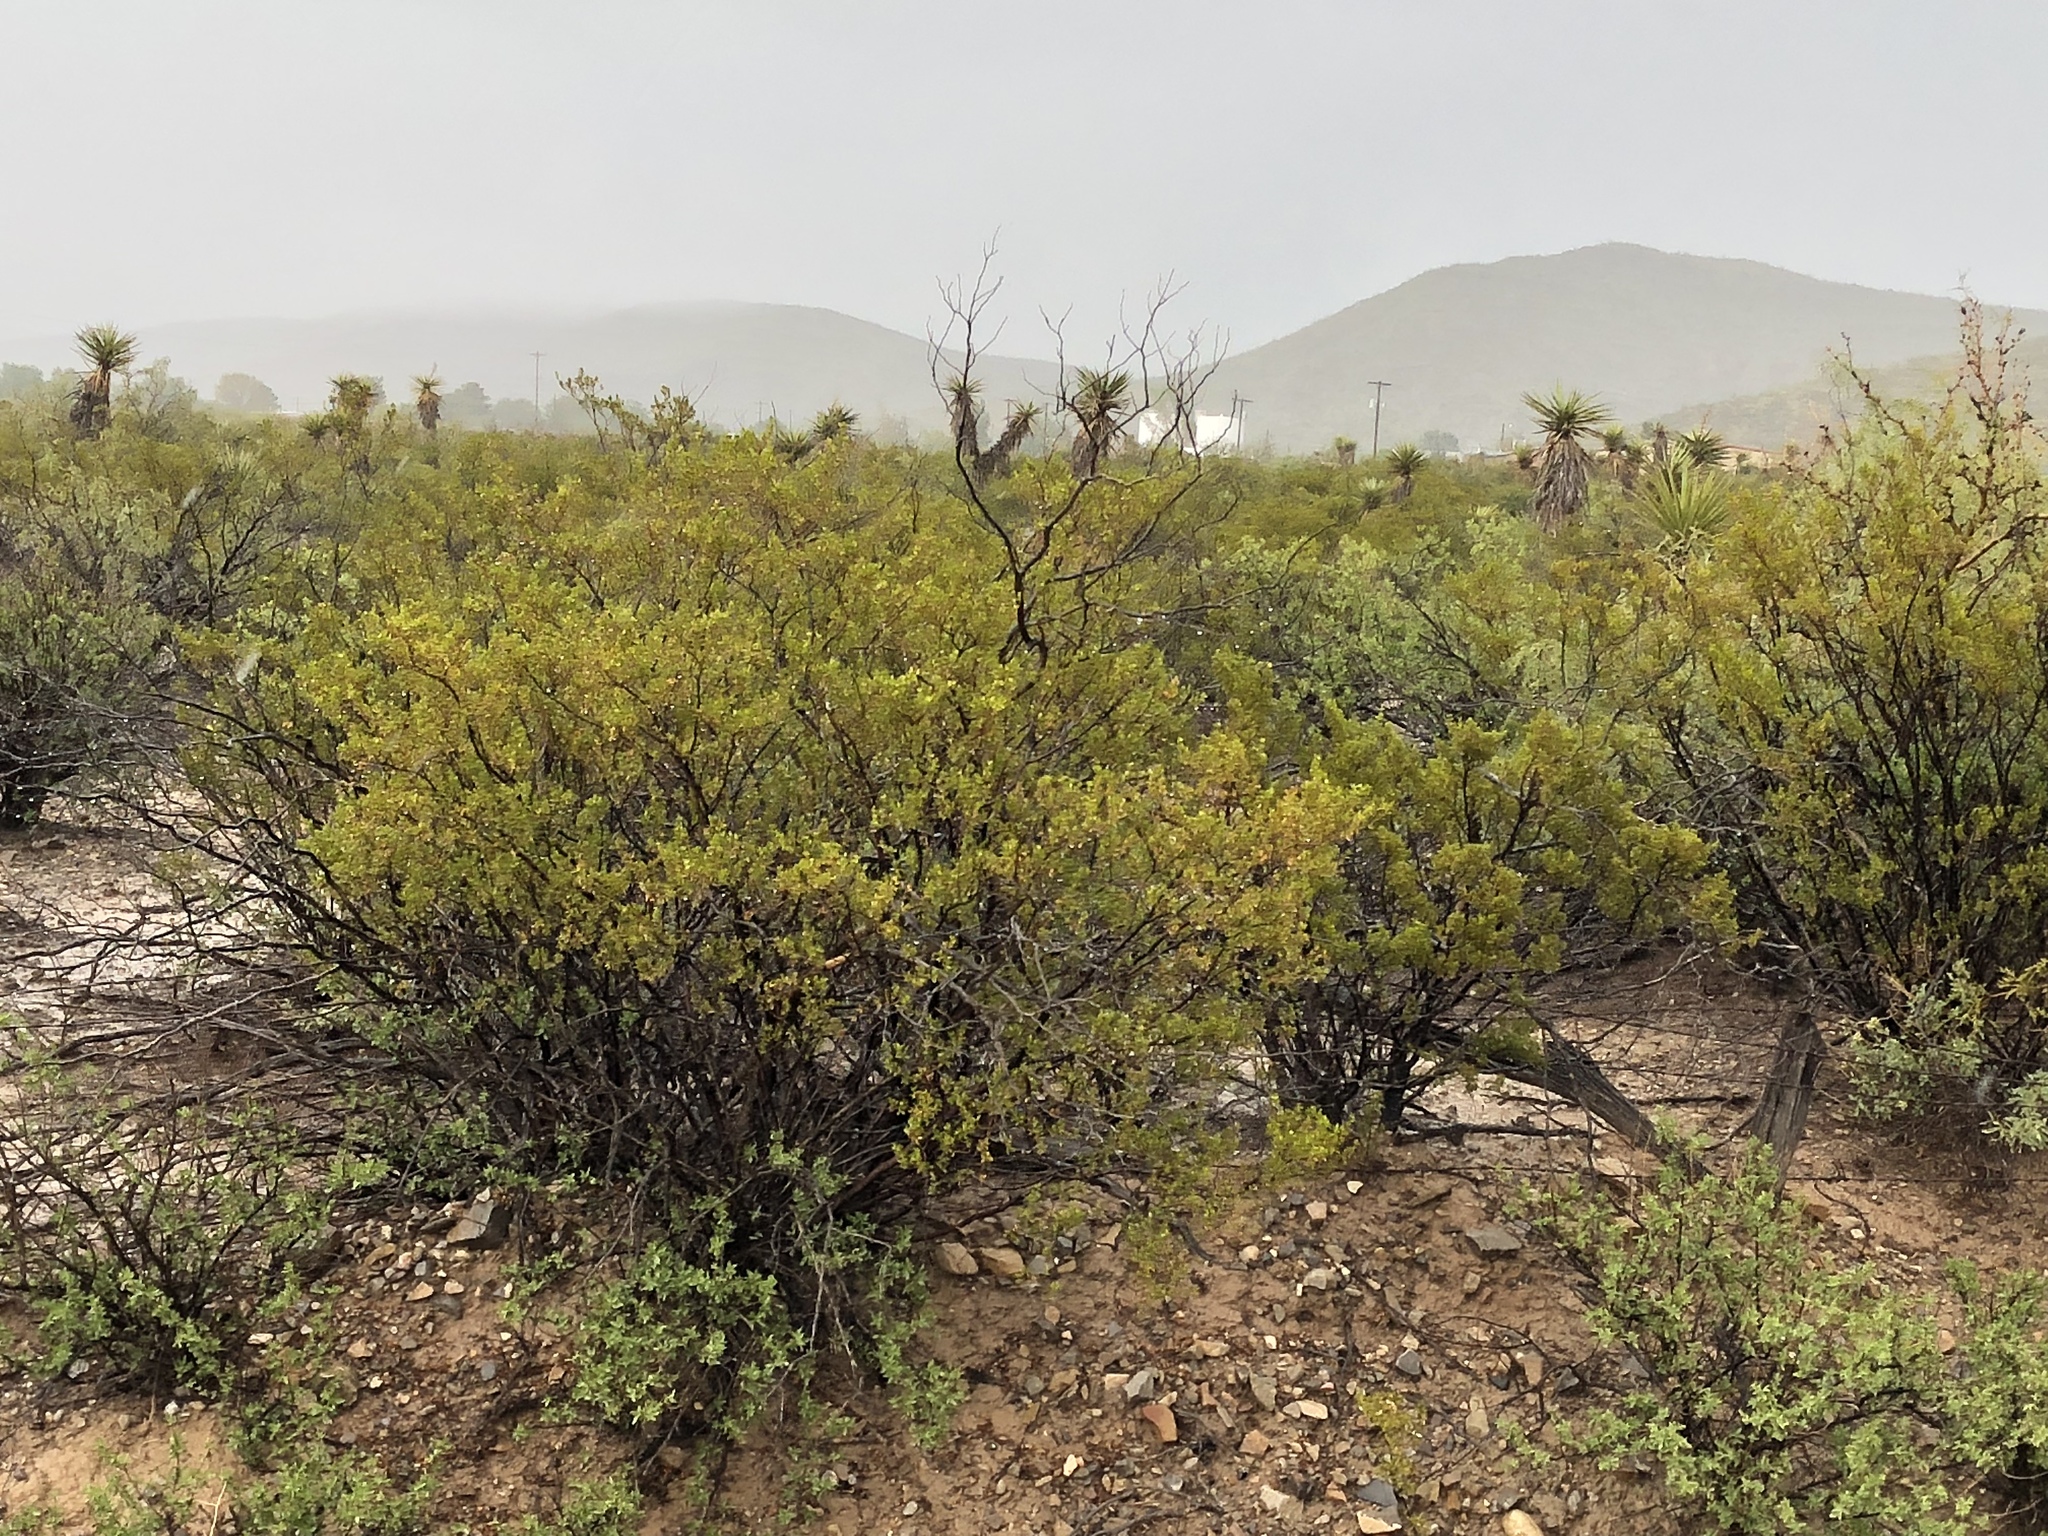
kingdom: Plantae
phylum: Tracheophyta
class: Magnoliopsida
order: Zygophyllales
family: Zygophyllaceae
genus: Larrea
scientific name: Larrea tridentata
